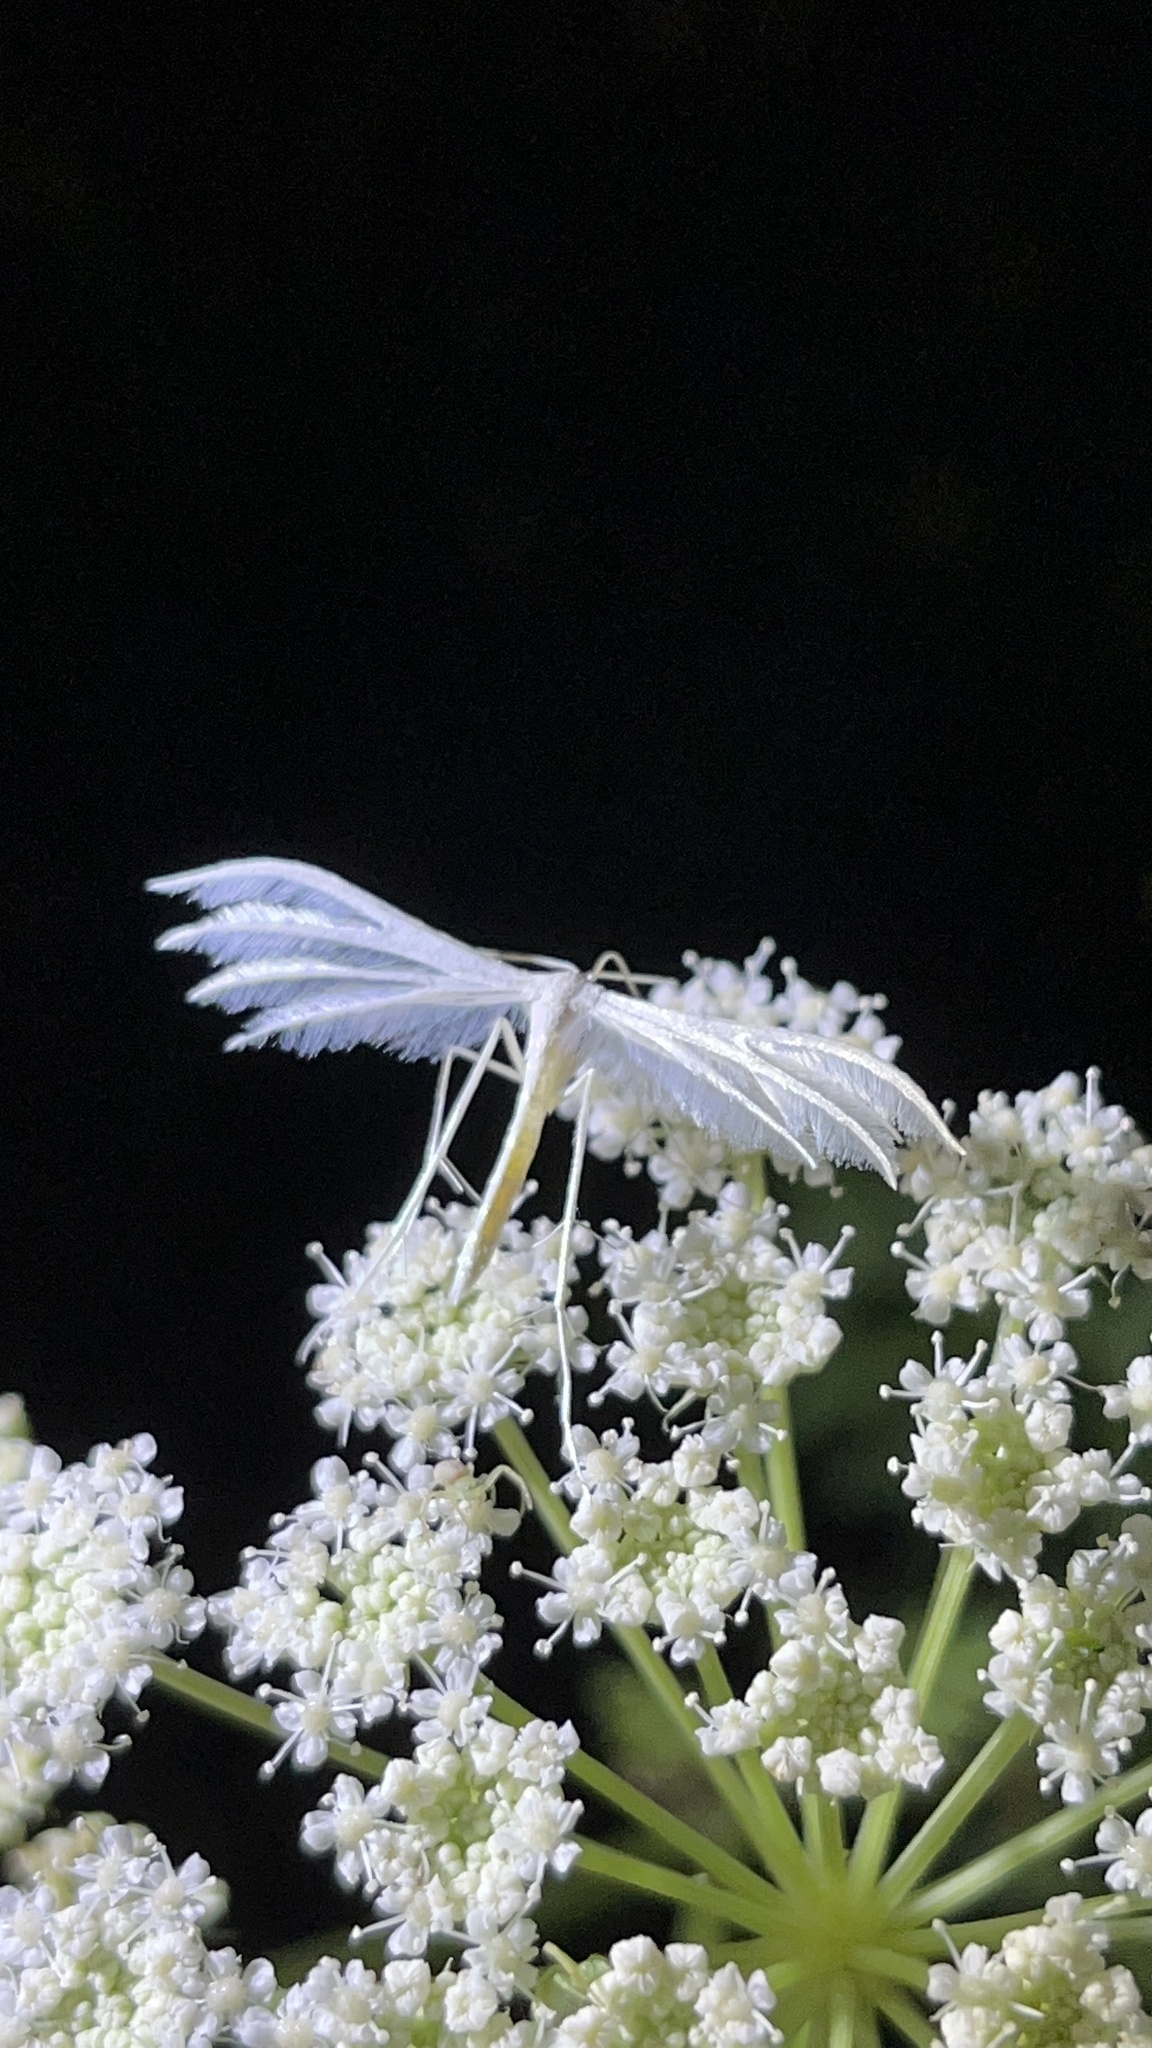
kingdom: Animalia
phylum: Arthropoda
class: Insecta
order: Lepidoptera
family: Pterophoridae
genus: Pterophorus
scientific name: Pterophorus pentadactyla
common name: White plume moth
